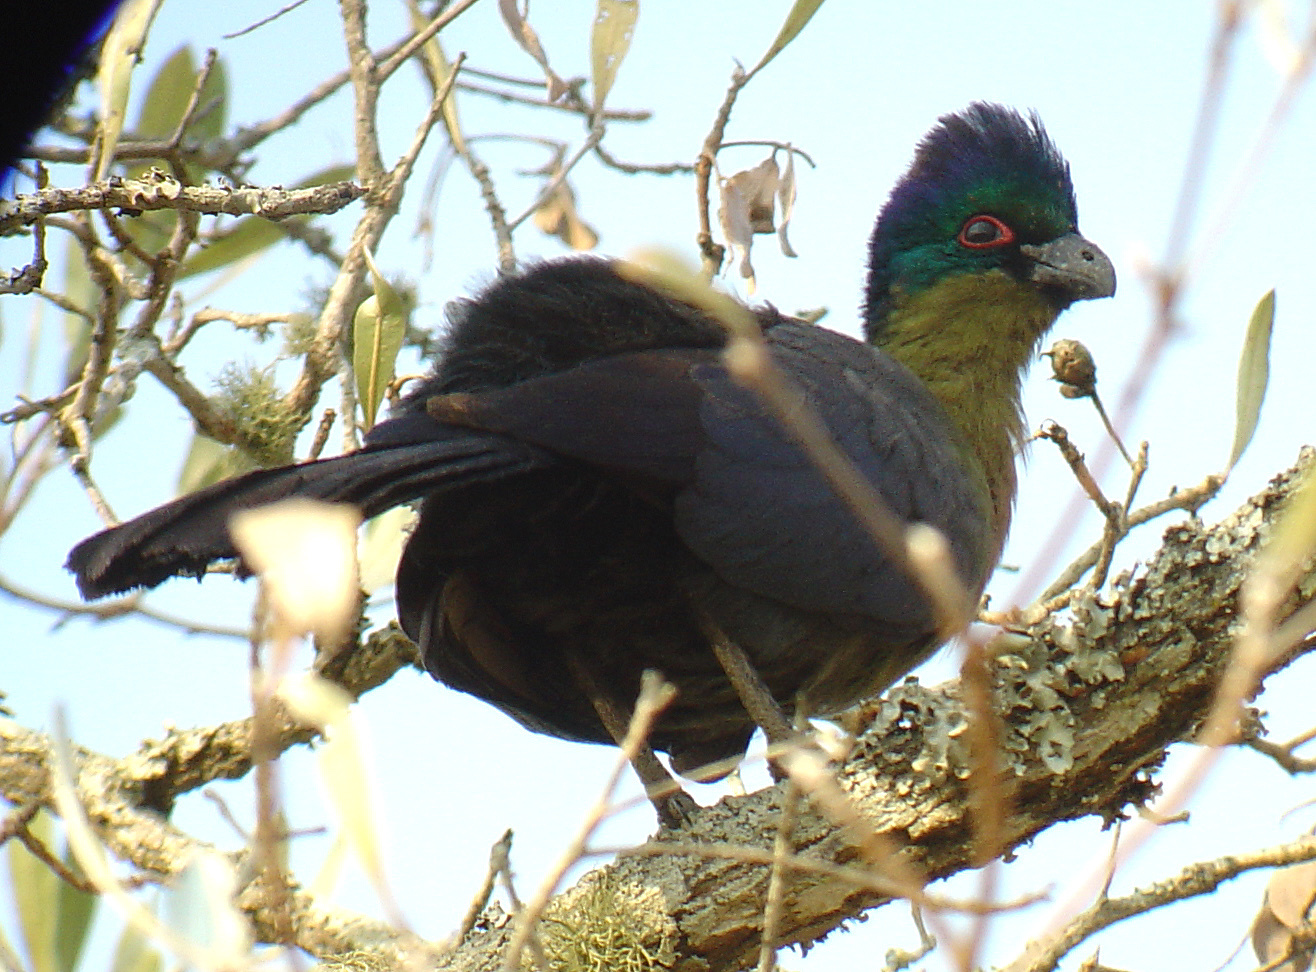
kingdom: Animalia
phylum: Chordata
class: Aves
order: Musophagiformes
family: Musophagidae
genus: Tauraco
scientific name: Tauraco porphyreolophus
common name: Purple-crested turaco
